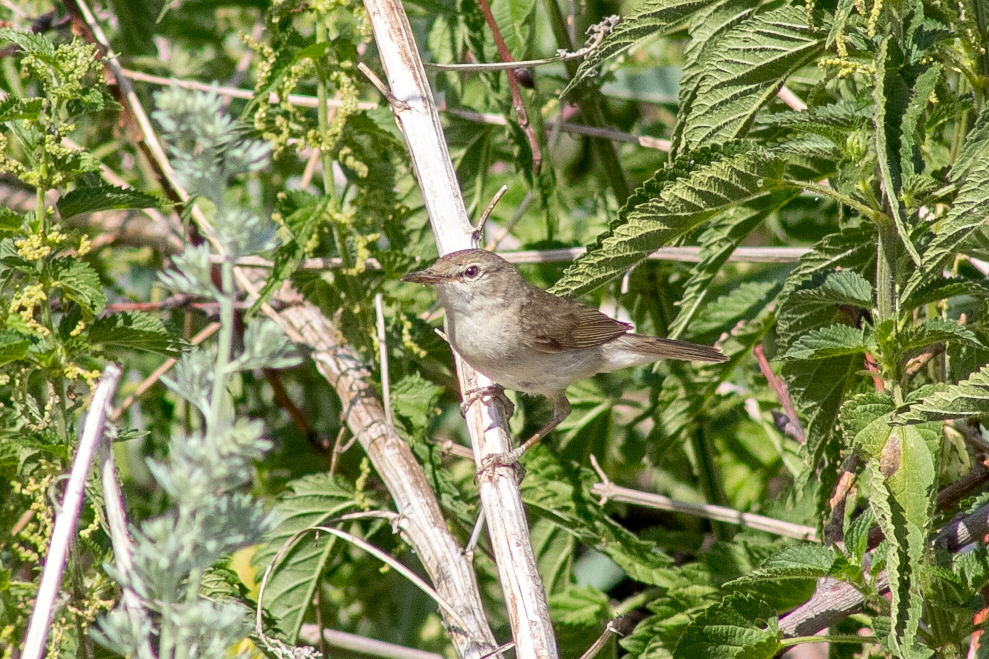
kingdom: Animalia
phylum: Chordata
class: Aves
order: Passeriformes
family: Acrocephalidae
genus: Acrocephalus
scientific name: Acrocephalus dumetorum
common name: Blyth's reed warbler
